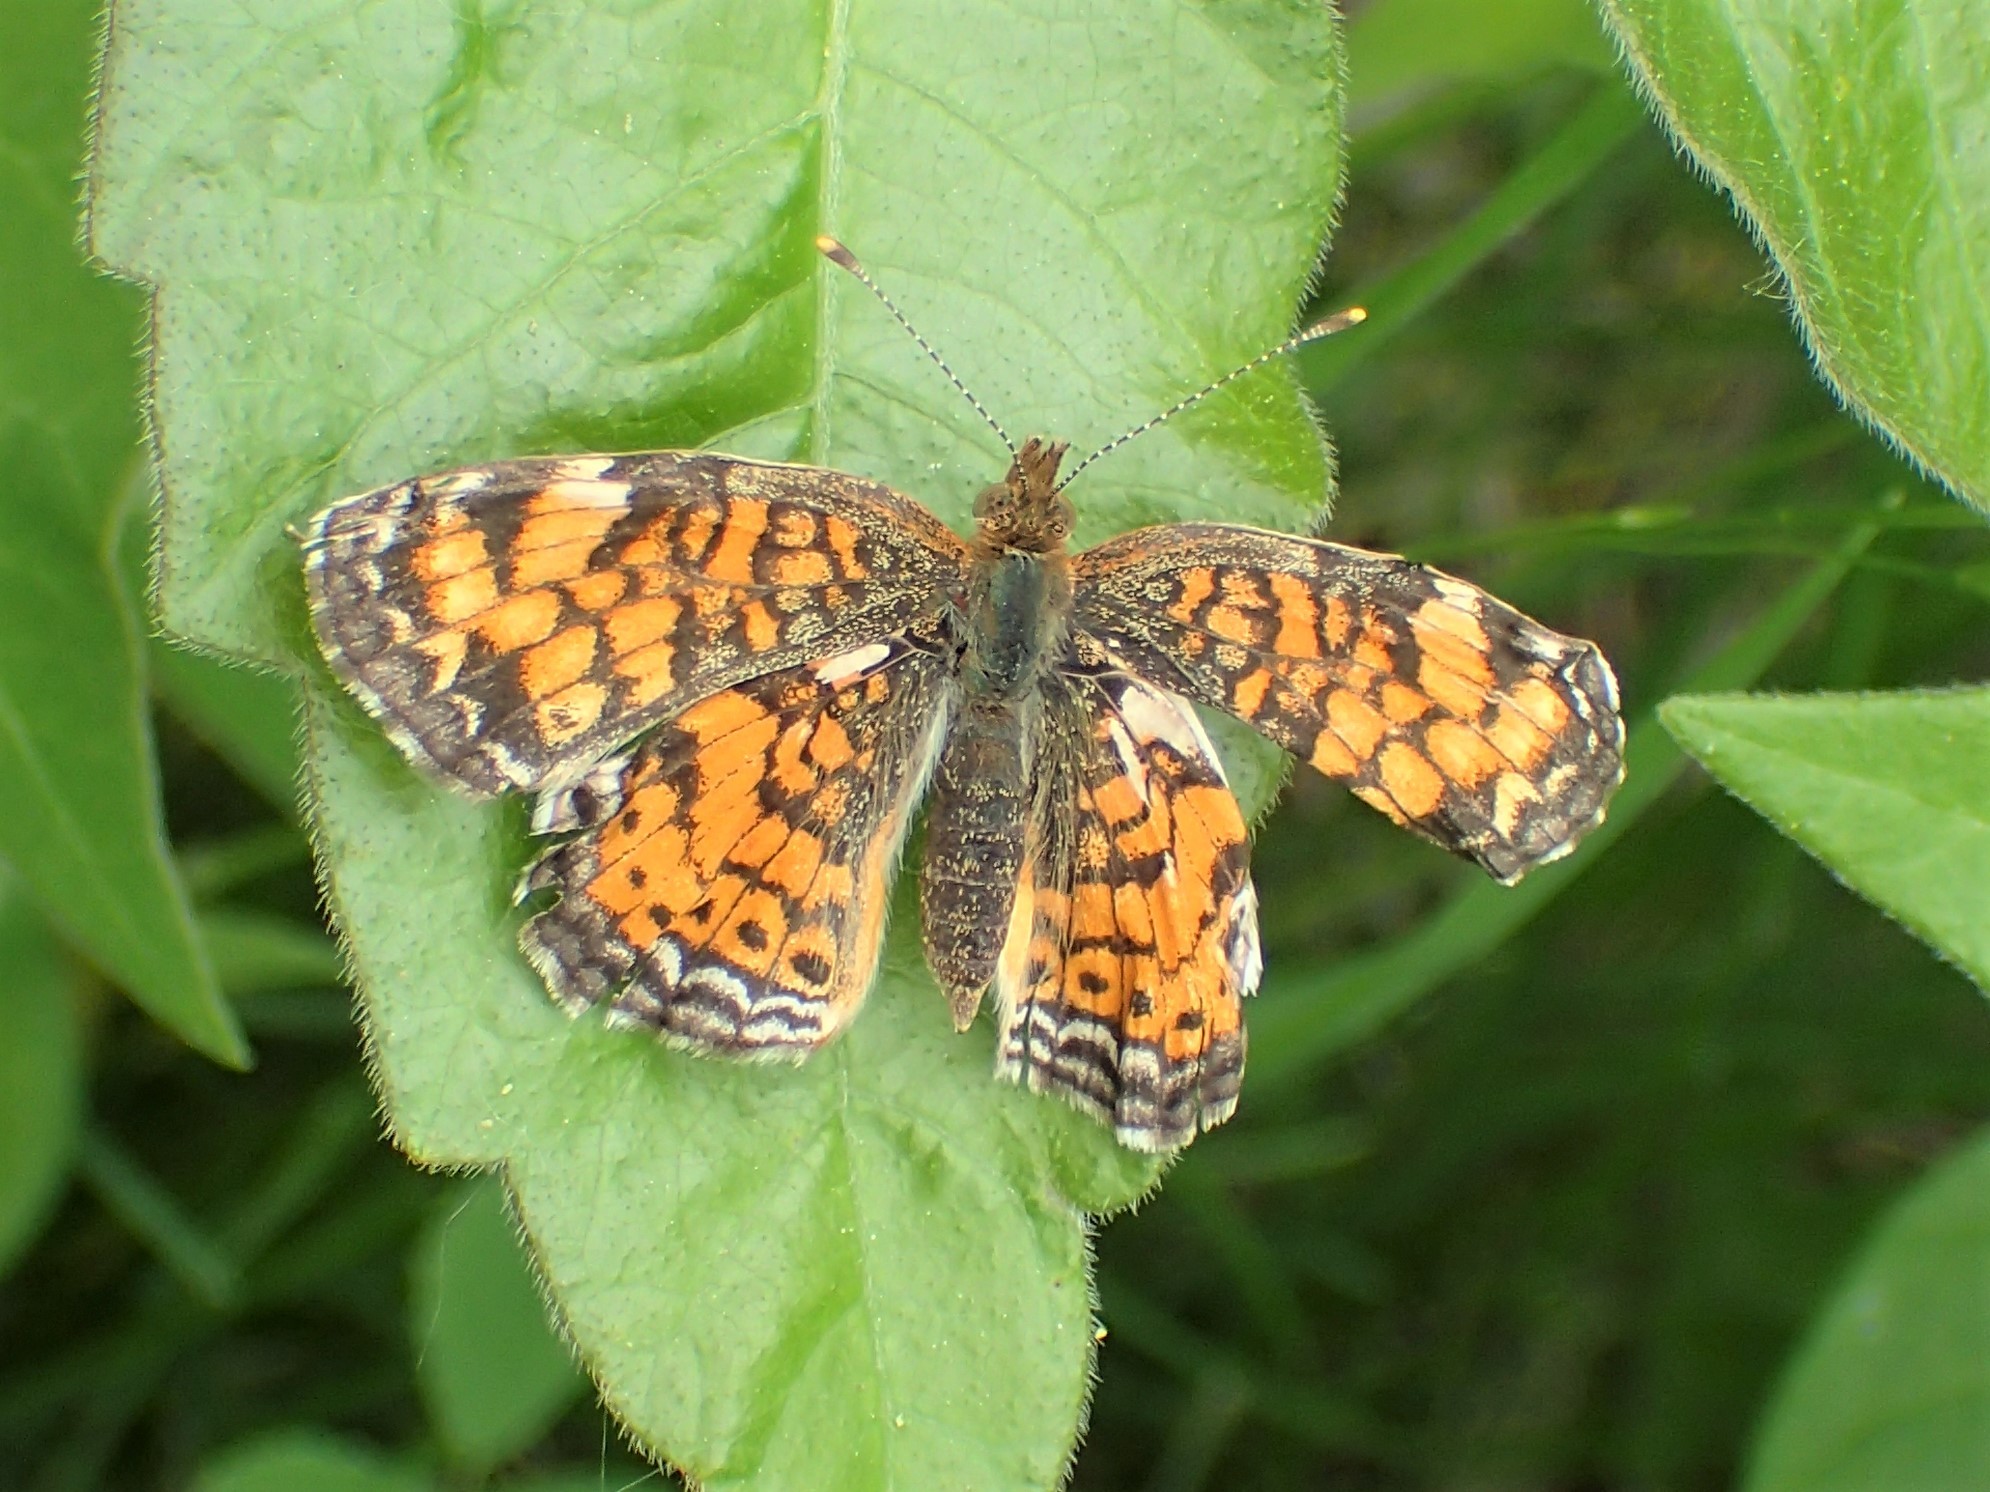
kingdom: Animalia
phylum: Arthropoda
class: Insecta
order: Lepidoptera
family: Nymphalidae
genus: Phyciodes
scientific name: Phyciodes tharos
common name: Pearl crescent
